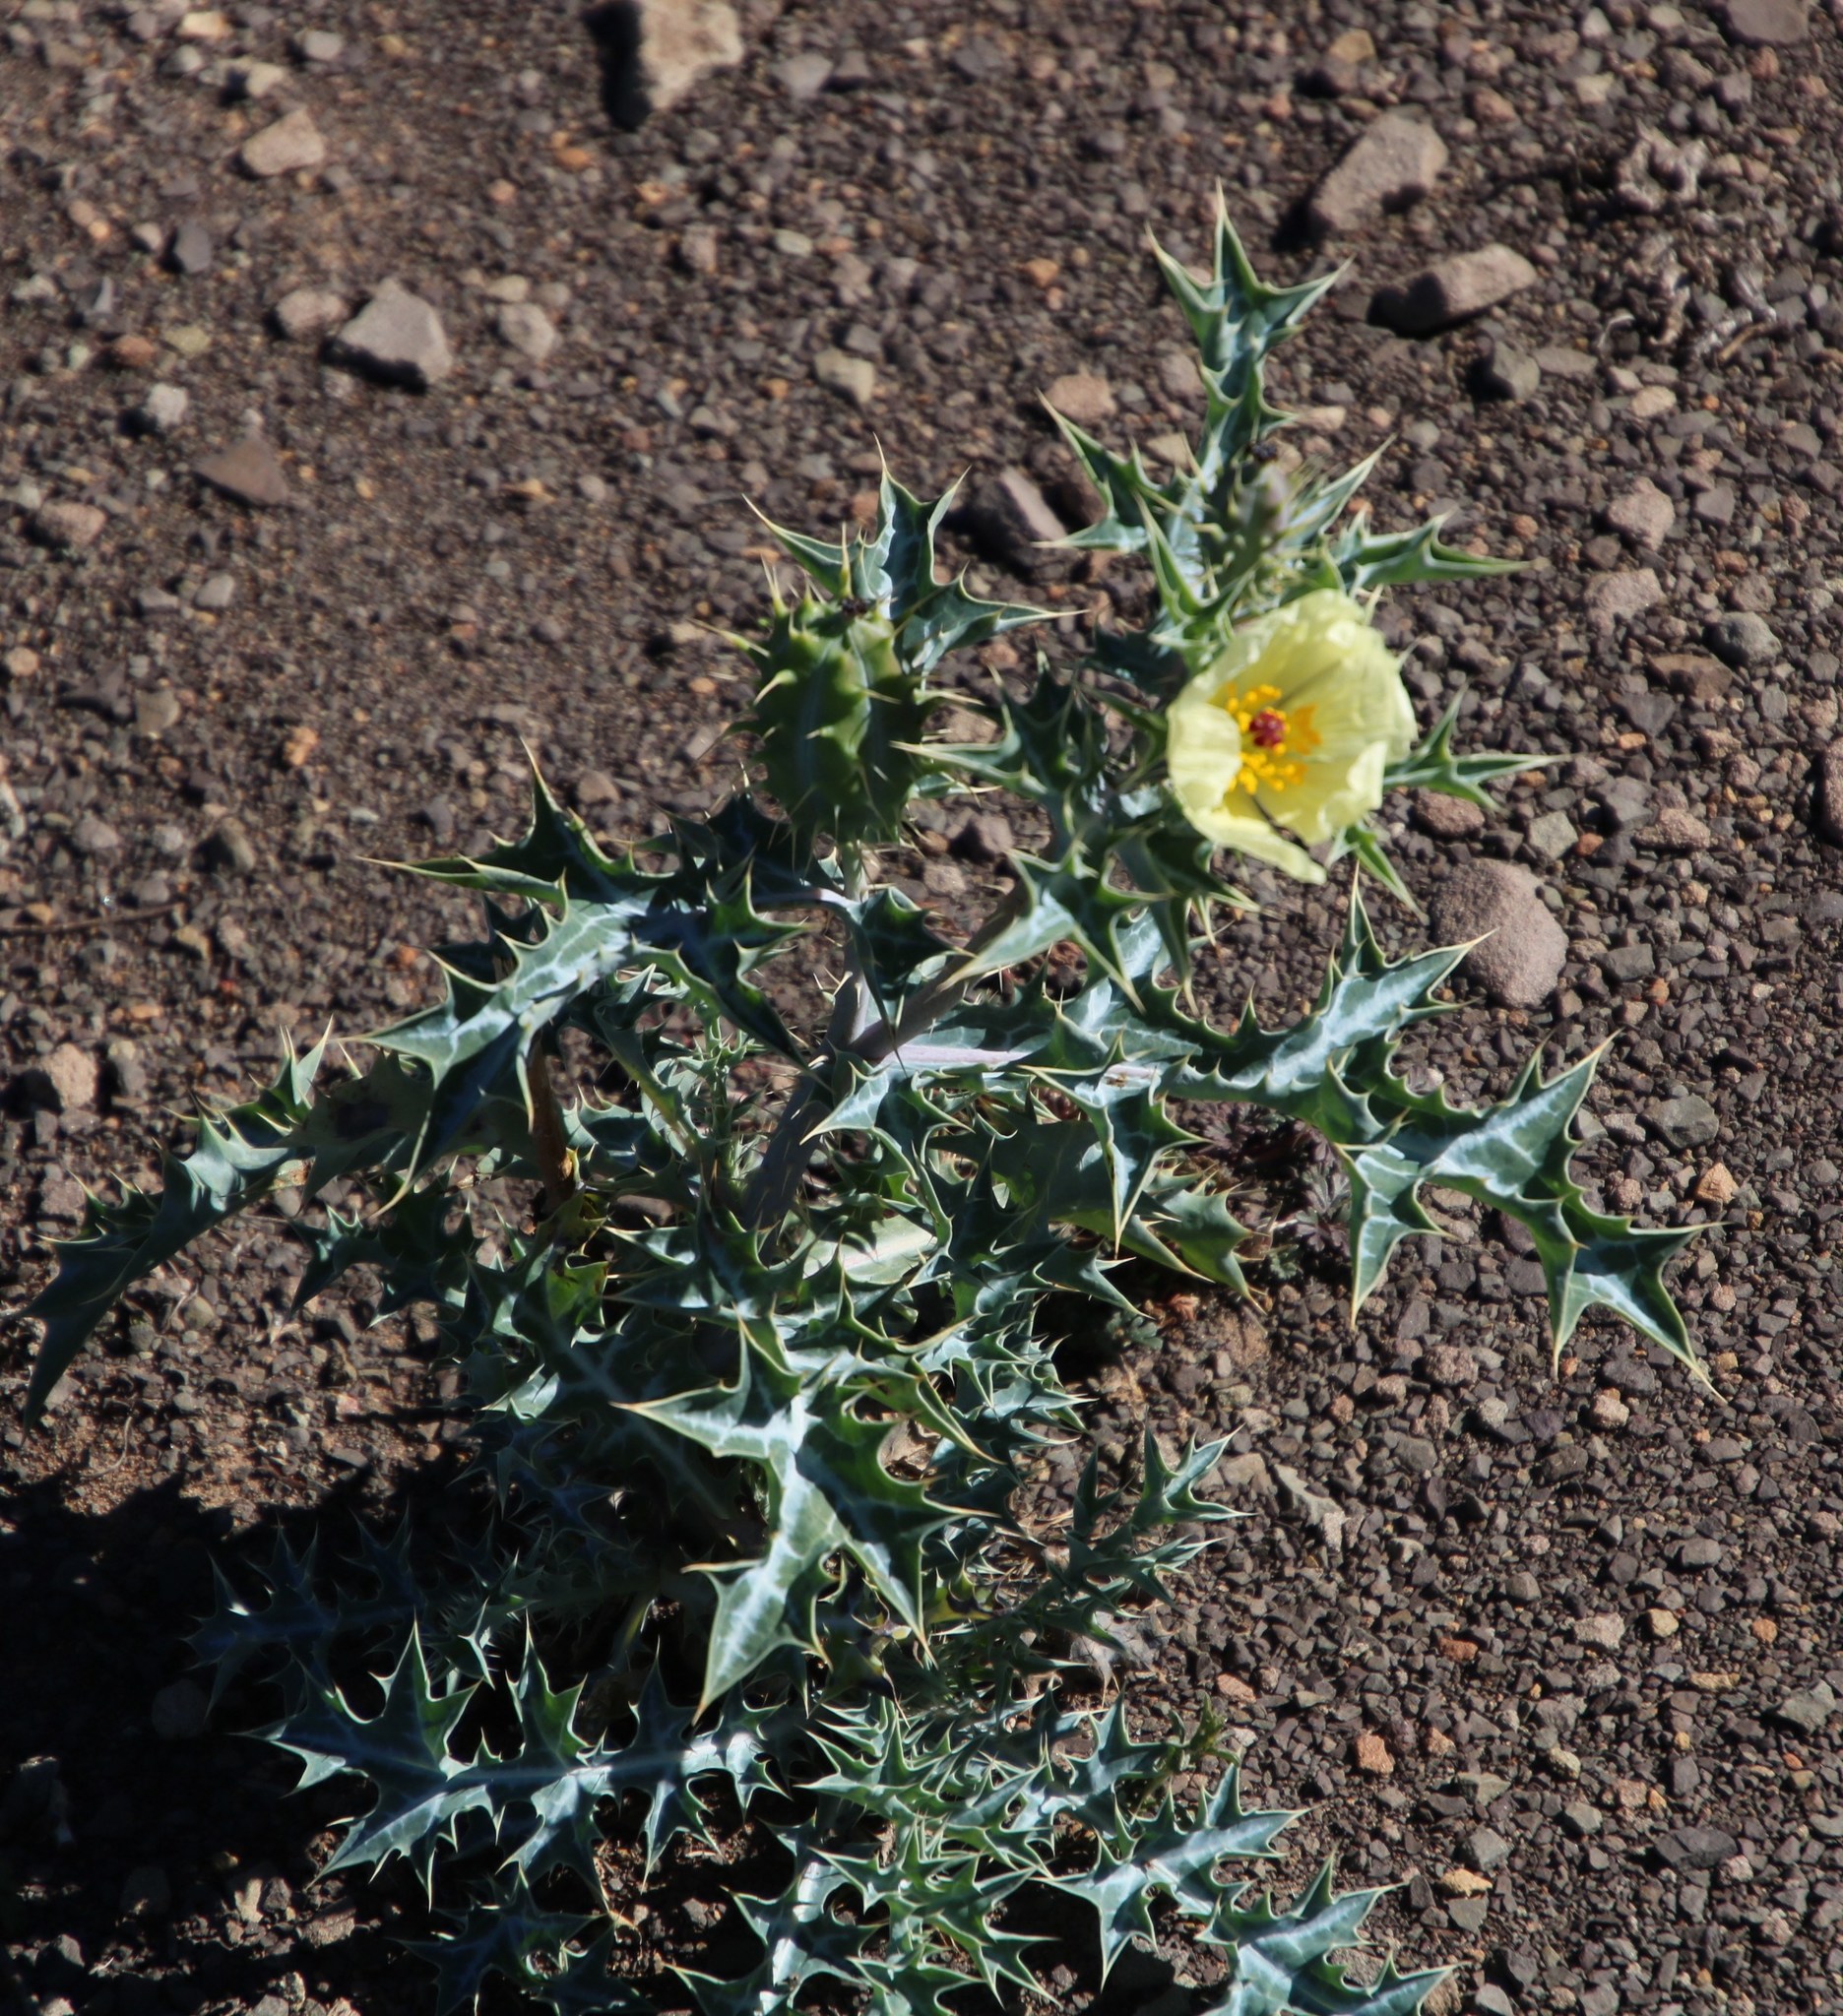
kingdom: Plantae
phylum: Tracheophyta
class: Magnoliopsida
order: Ranunculales
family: Papaveraceae
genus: Argemone
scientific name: Argemone ochroleuca
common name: White-flower mexican-poppy
